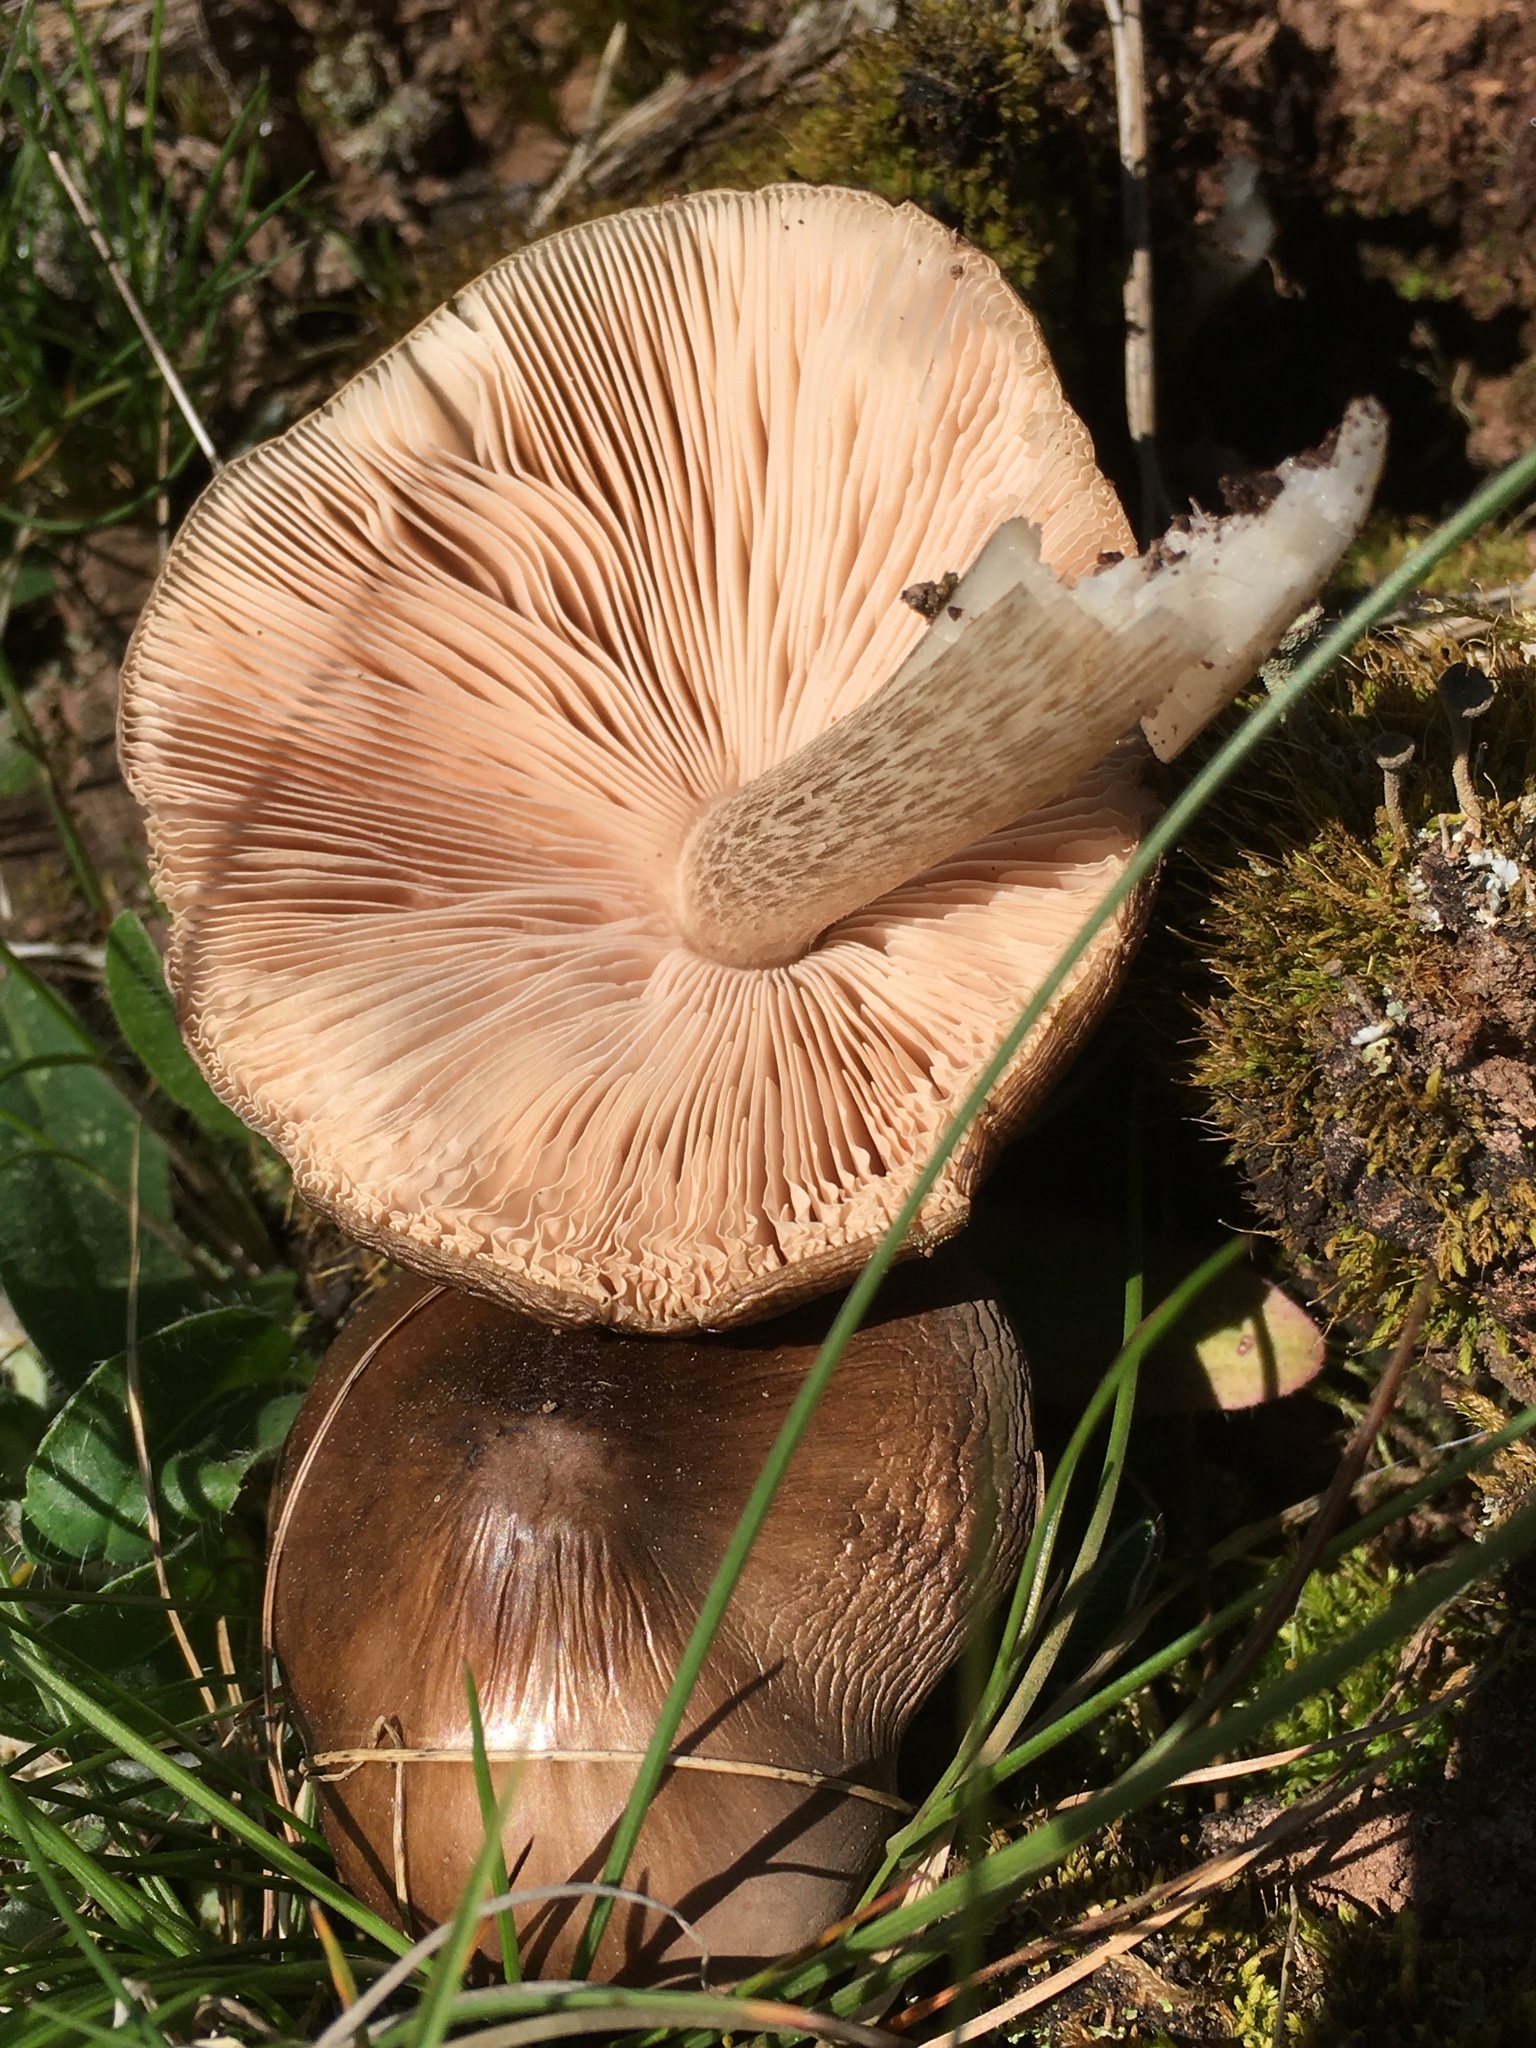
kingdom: Fungi
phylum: Basidiomycota
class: Agaricomycetes
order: Agaricales
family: Pluteaceae
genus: Pluteus
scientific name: Pluteus cervinus
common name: Deer shield
